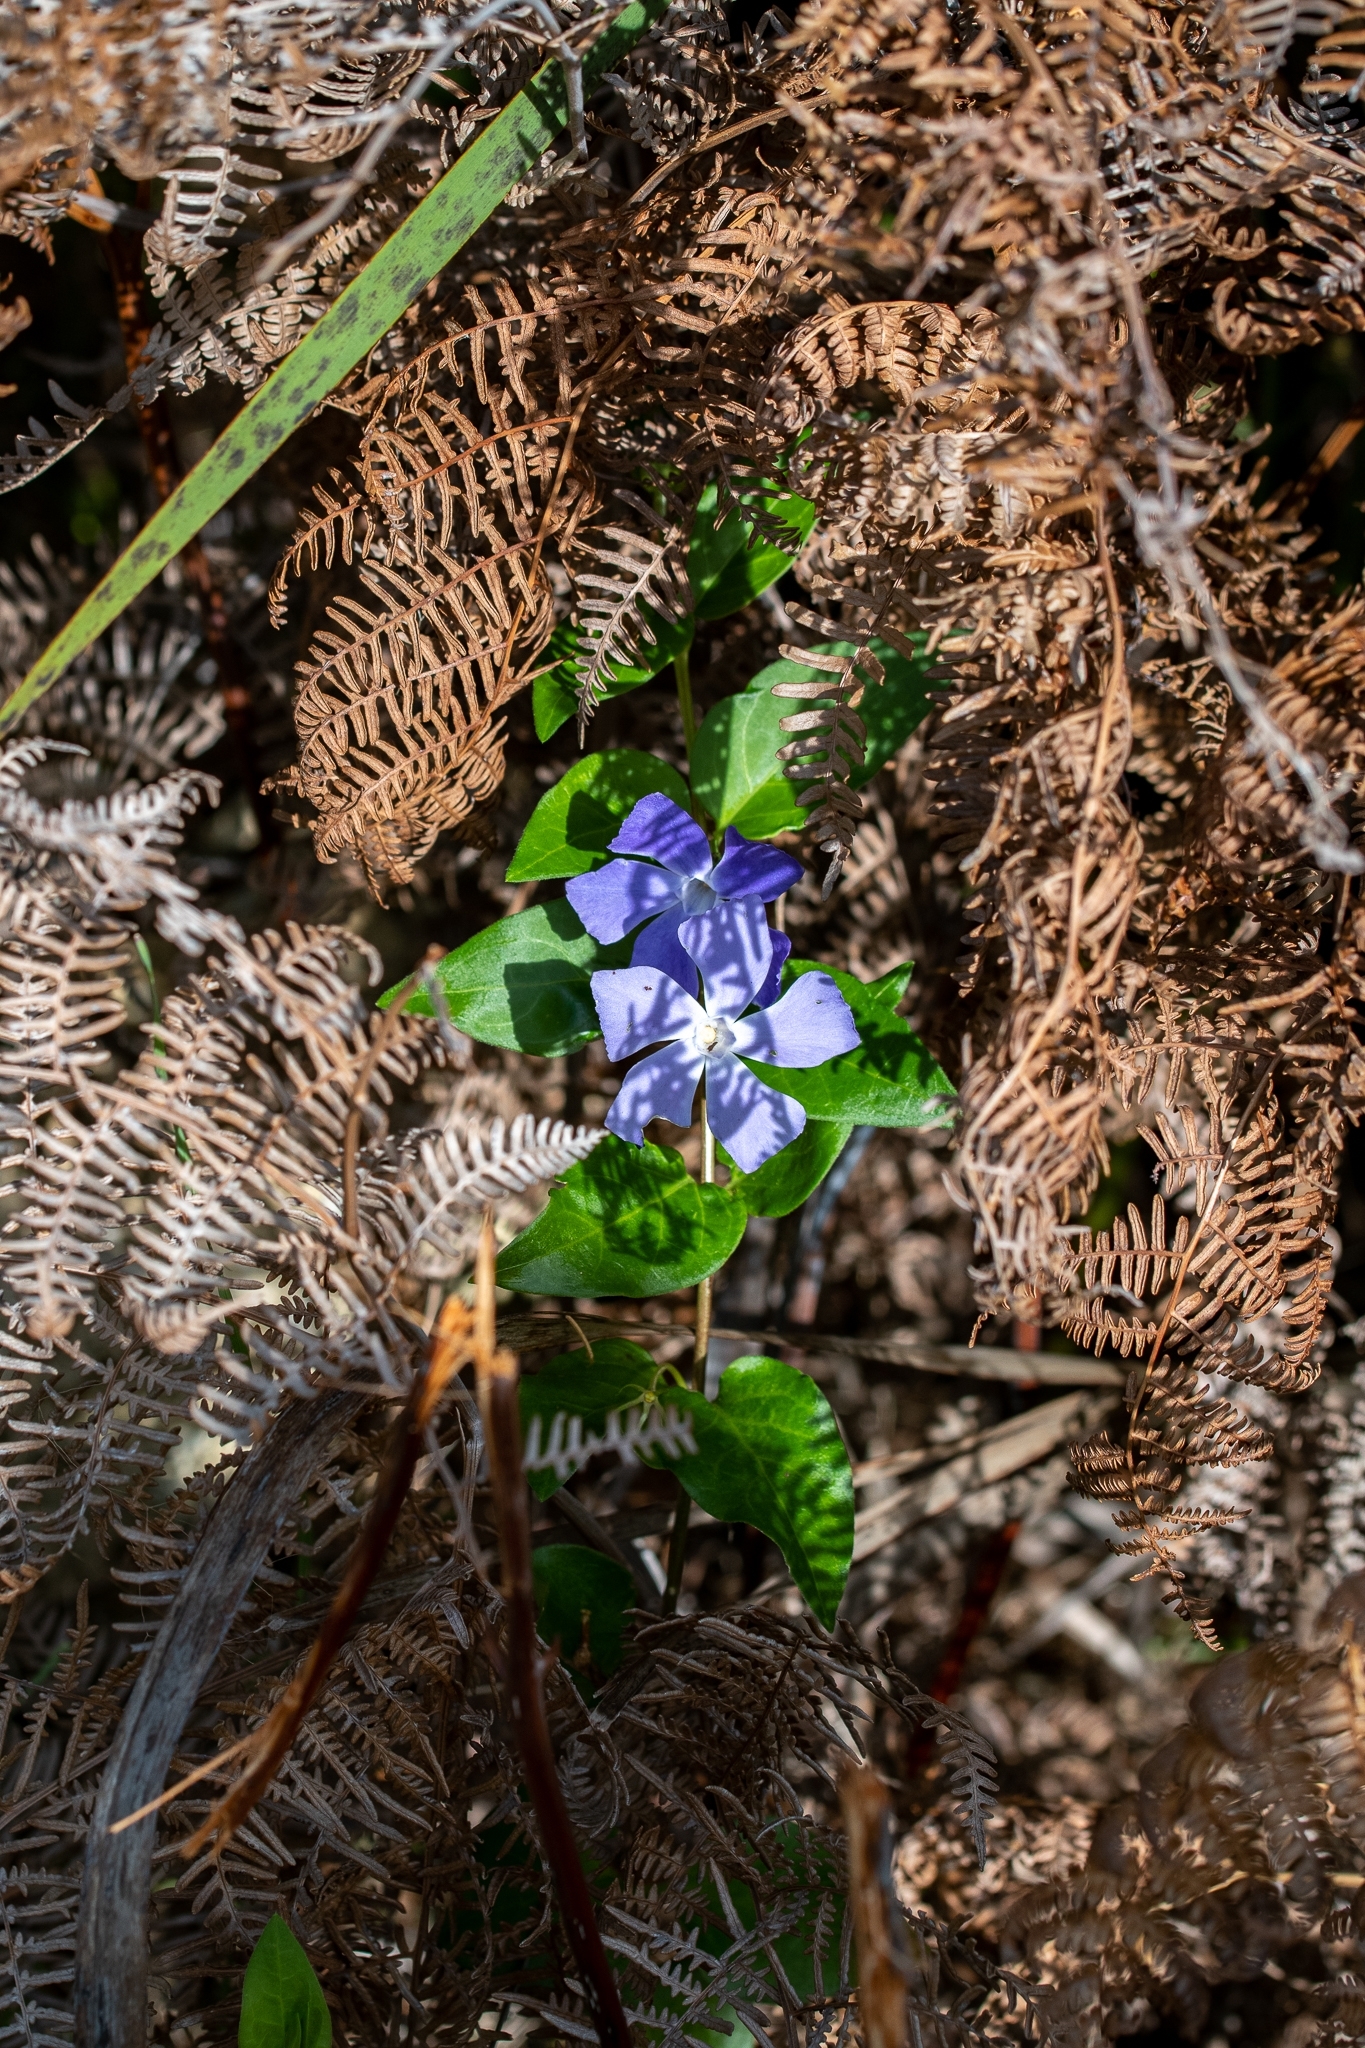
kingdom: Plantae
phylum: Tracheophyta
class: Magnoliopsida
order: Gentianales
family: Apocynaceae
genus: Vinca
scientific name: Vinca major
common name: Greater periwinkle
